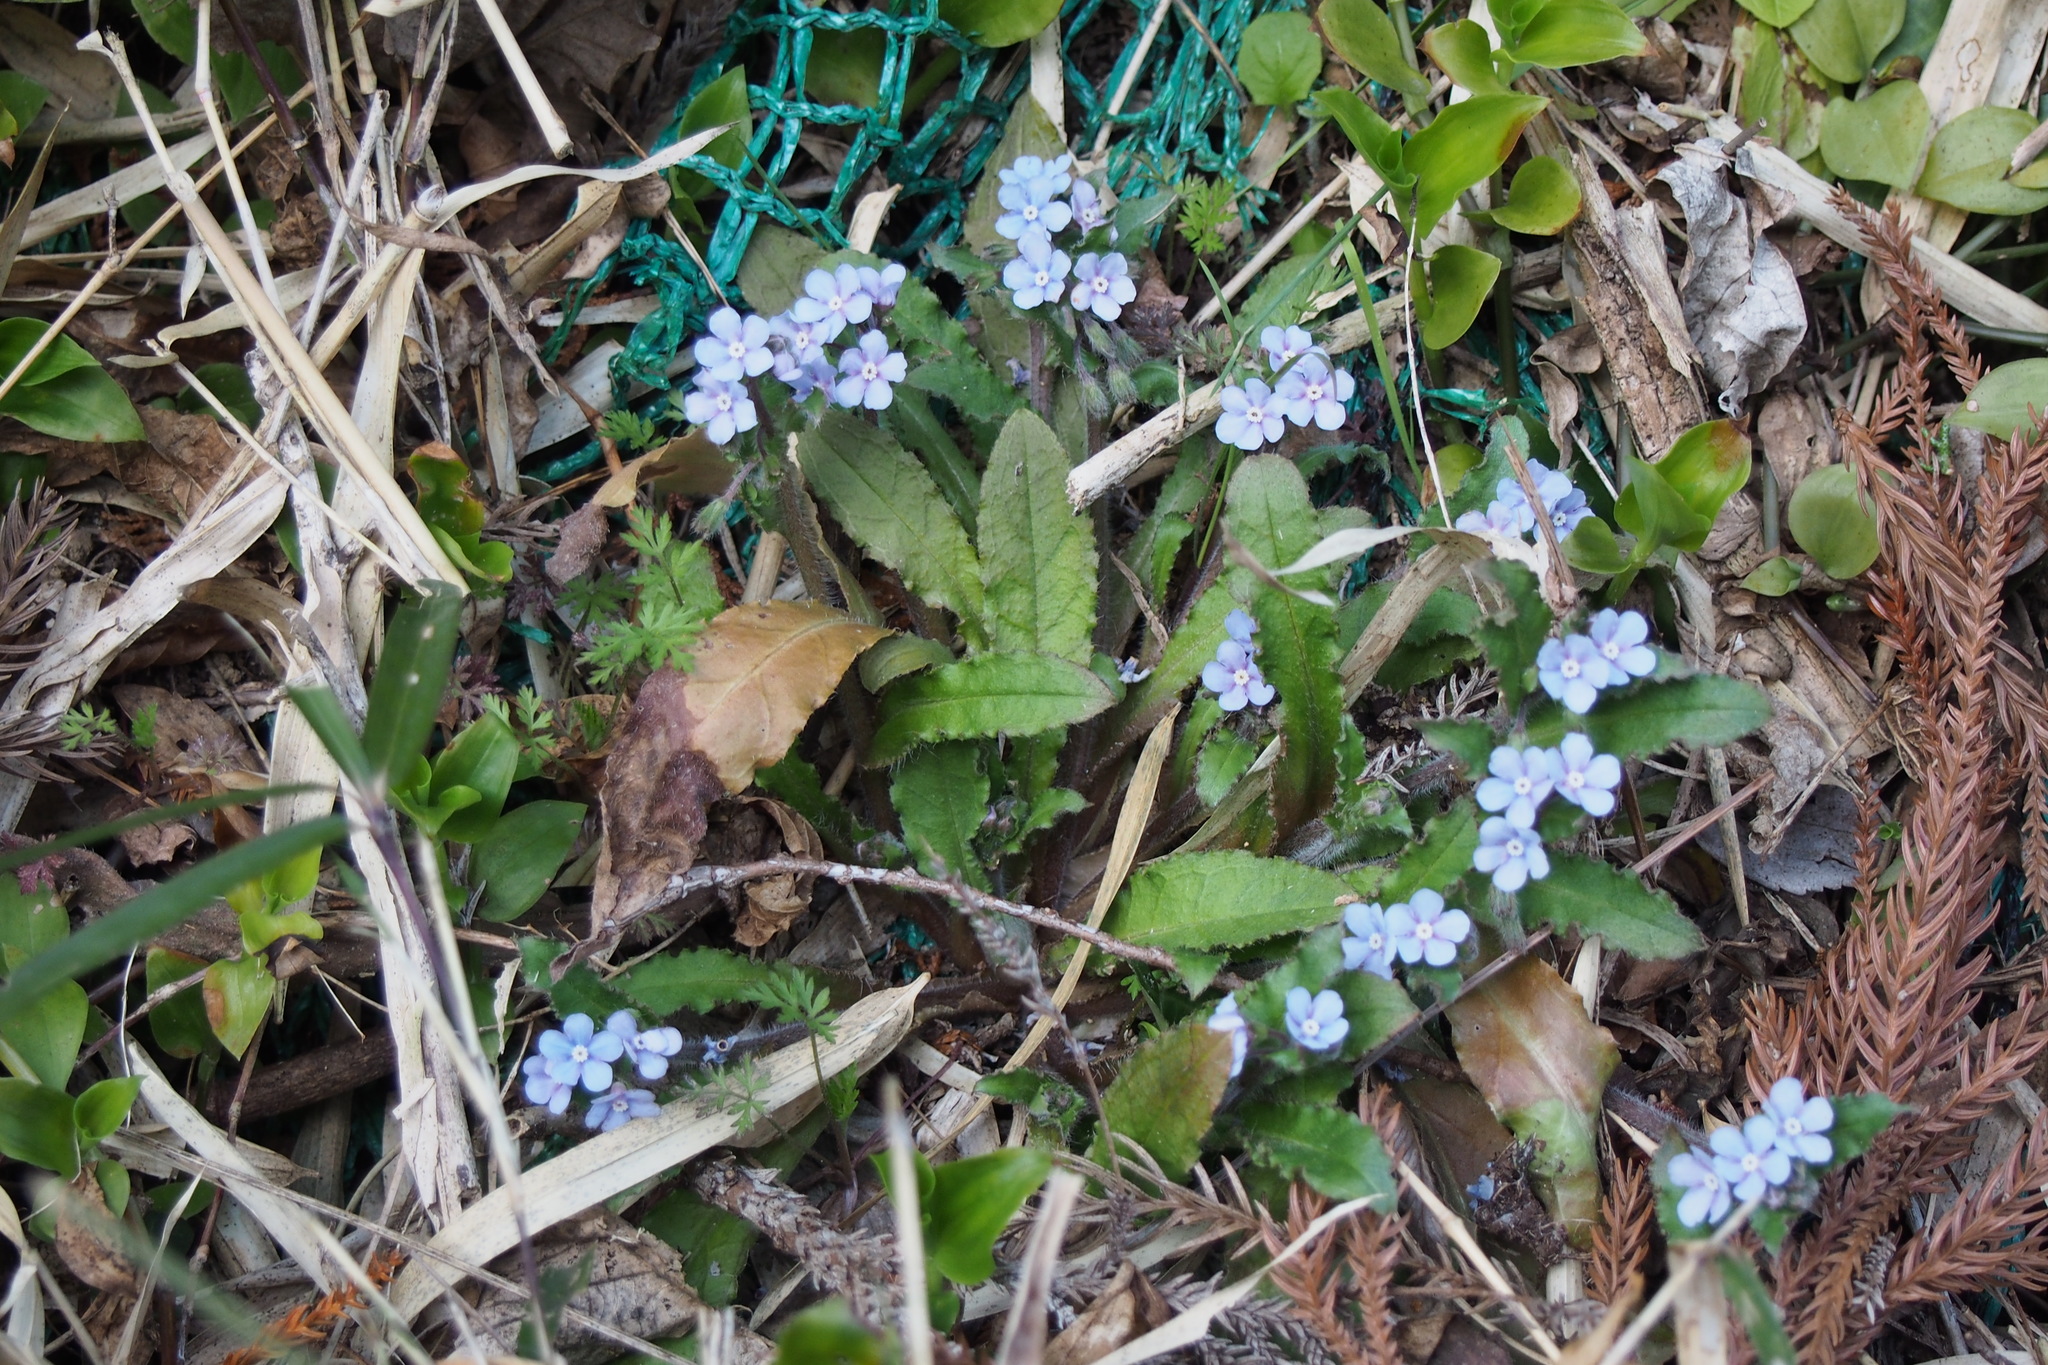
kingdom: Plantae
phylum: Tracheophyta
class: Magnoliopsida
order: Boraginales
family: Boraginaceae
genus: Nihon
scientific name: Nihon japonicum
